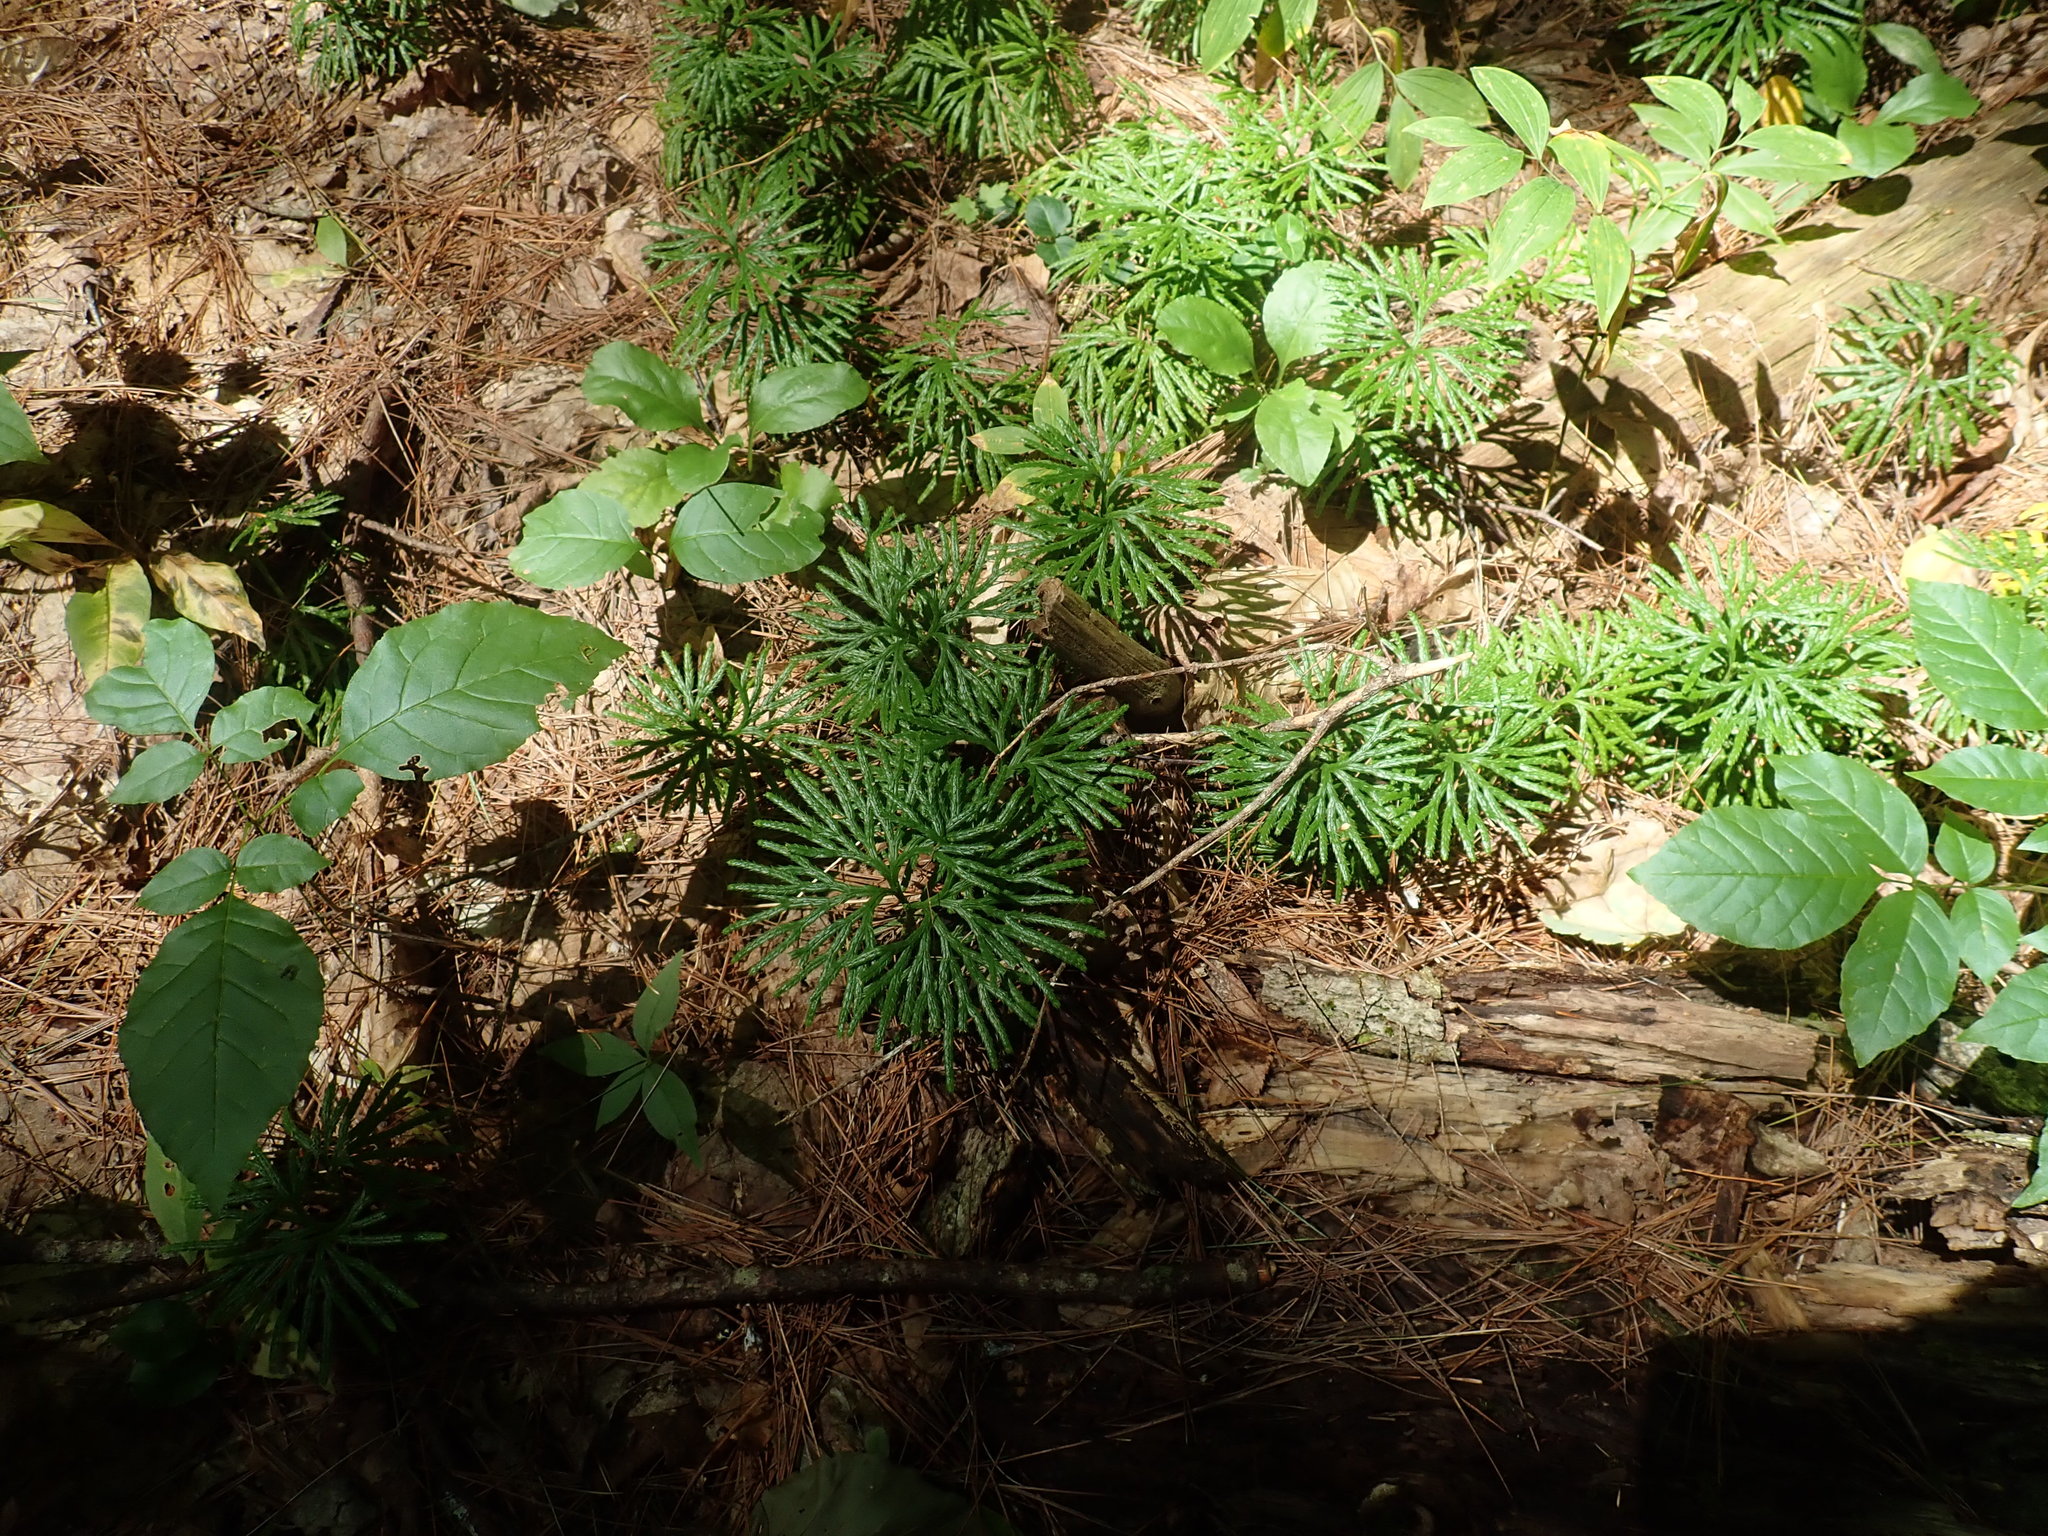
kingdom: Plantae
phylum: Tracheophyta
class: Lycopodiopsida
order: Lycopodiales
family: Lycopodiaceae
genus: Diphasiastrum
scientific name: Diphasiastrum digitatum
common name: Southern running-pine
